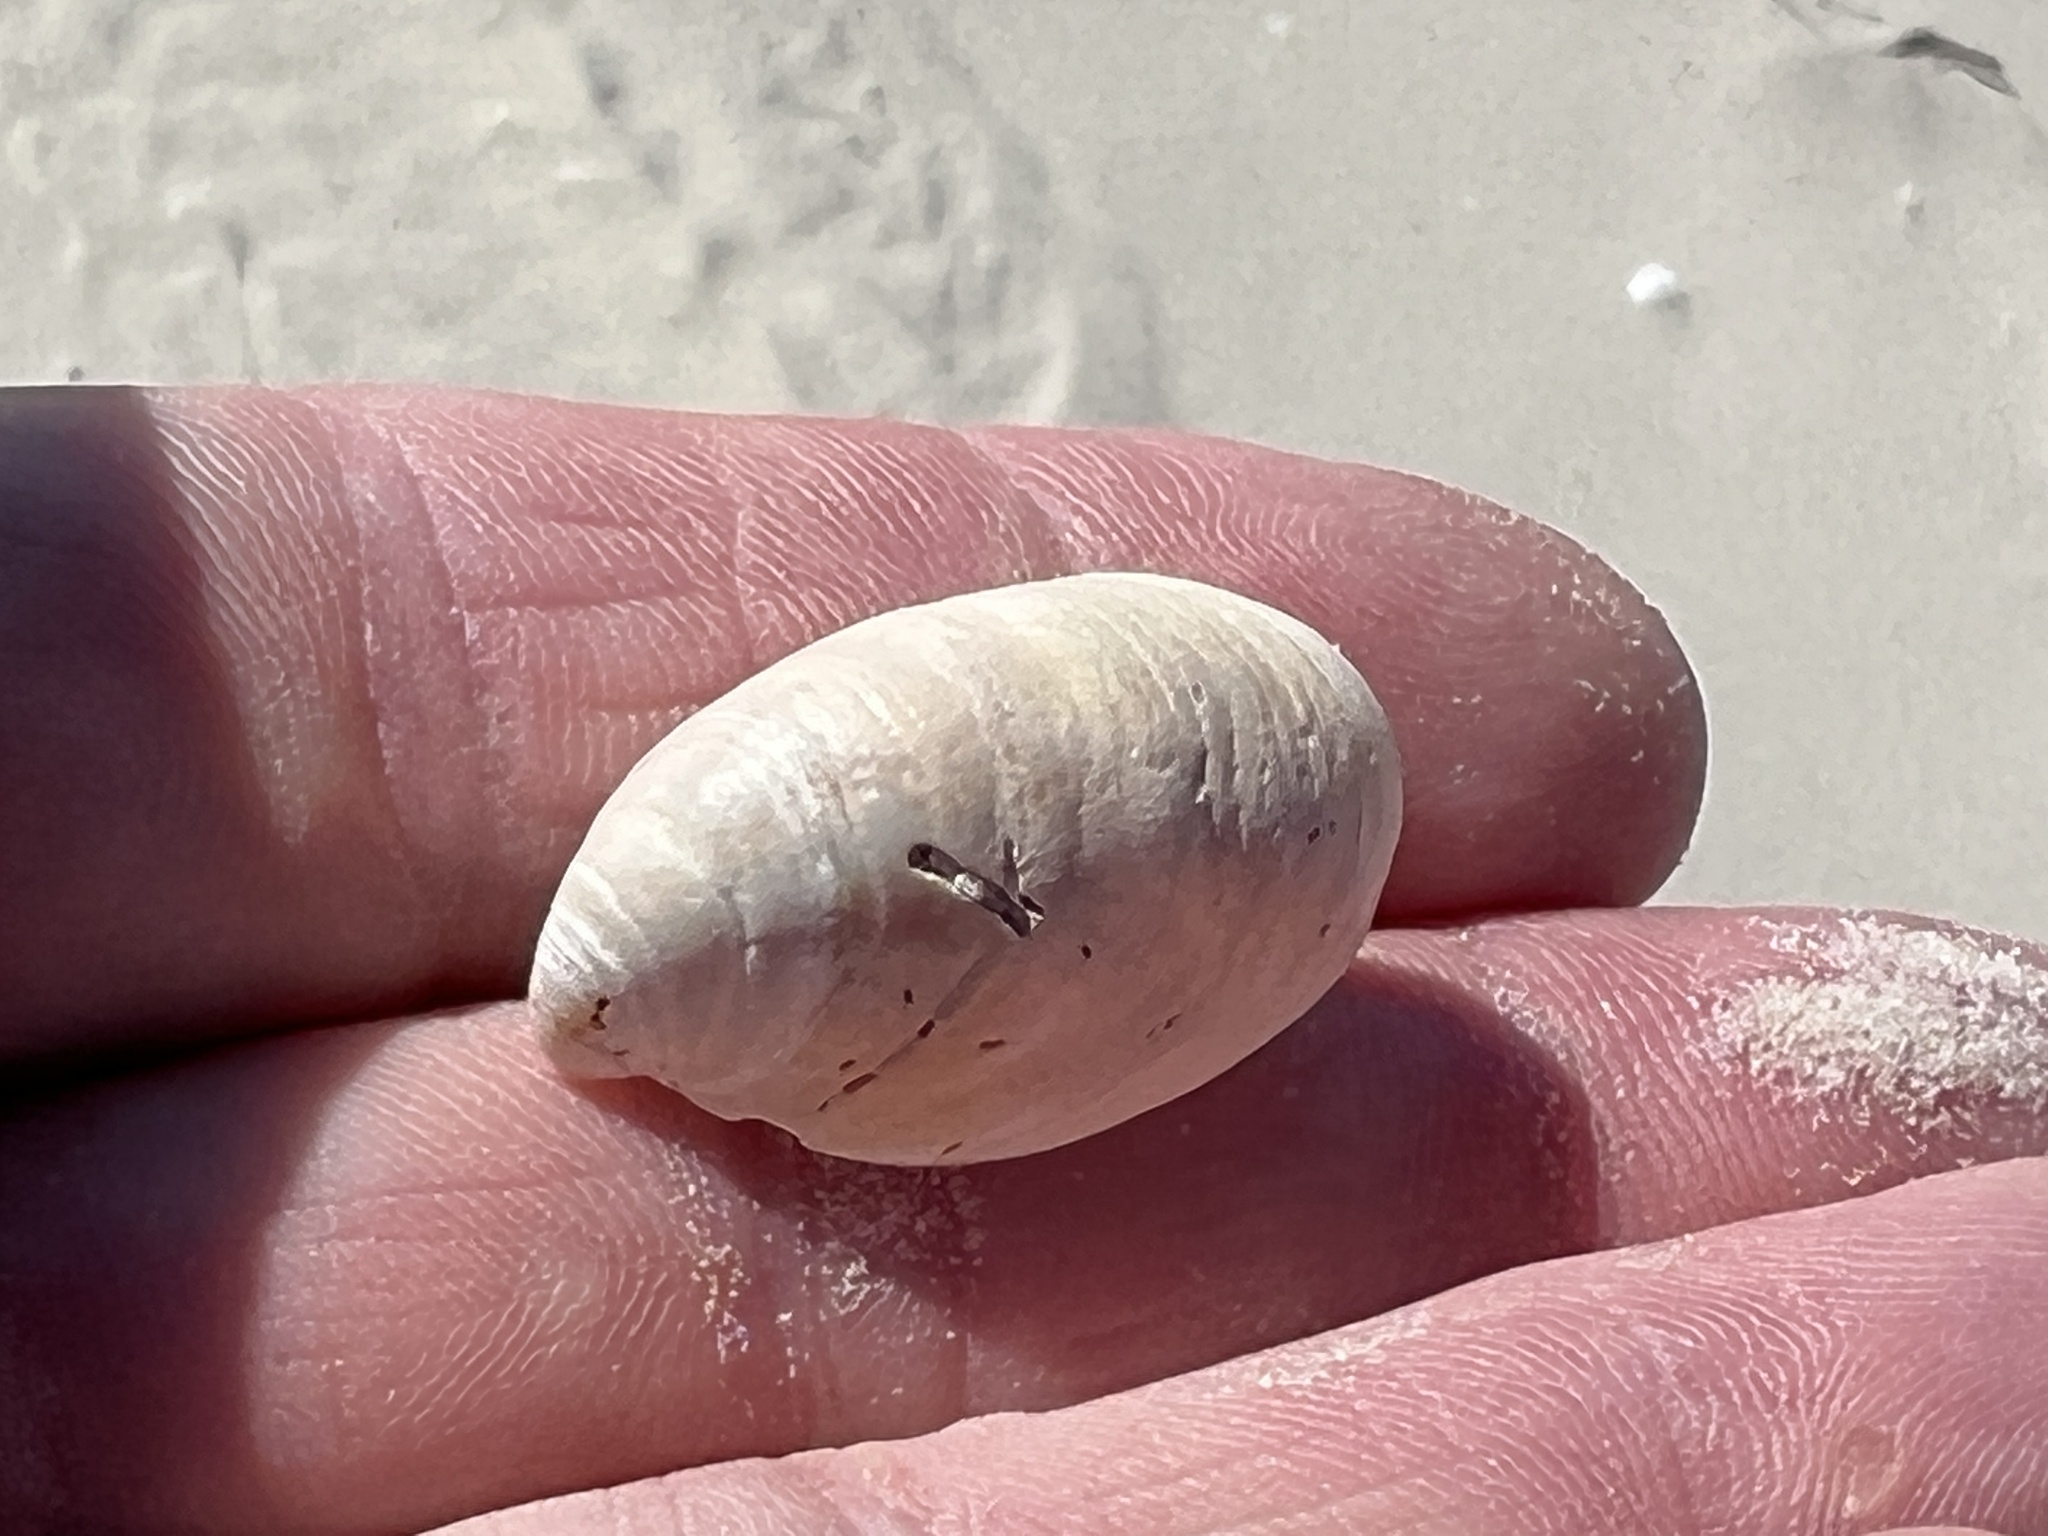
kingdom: Animalia
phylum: Mollusca
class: Gastropoda
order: Littorinimorpha
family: Calyptraeidae
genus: Crepidula
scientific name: Crepidula fornicata
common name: Slipper limpet
